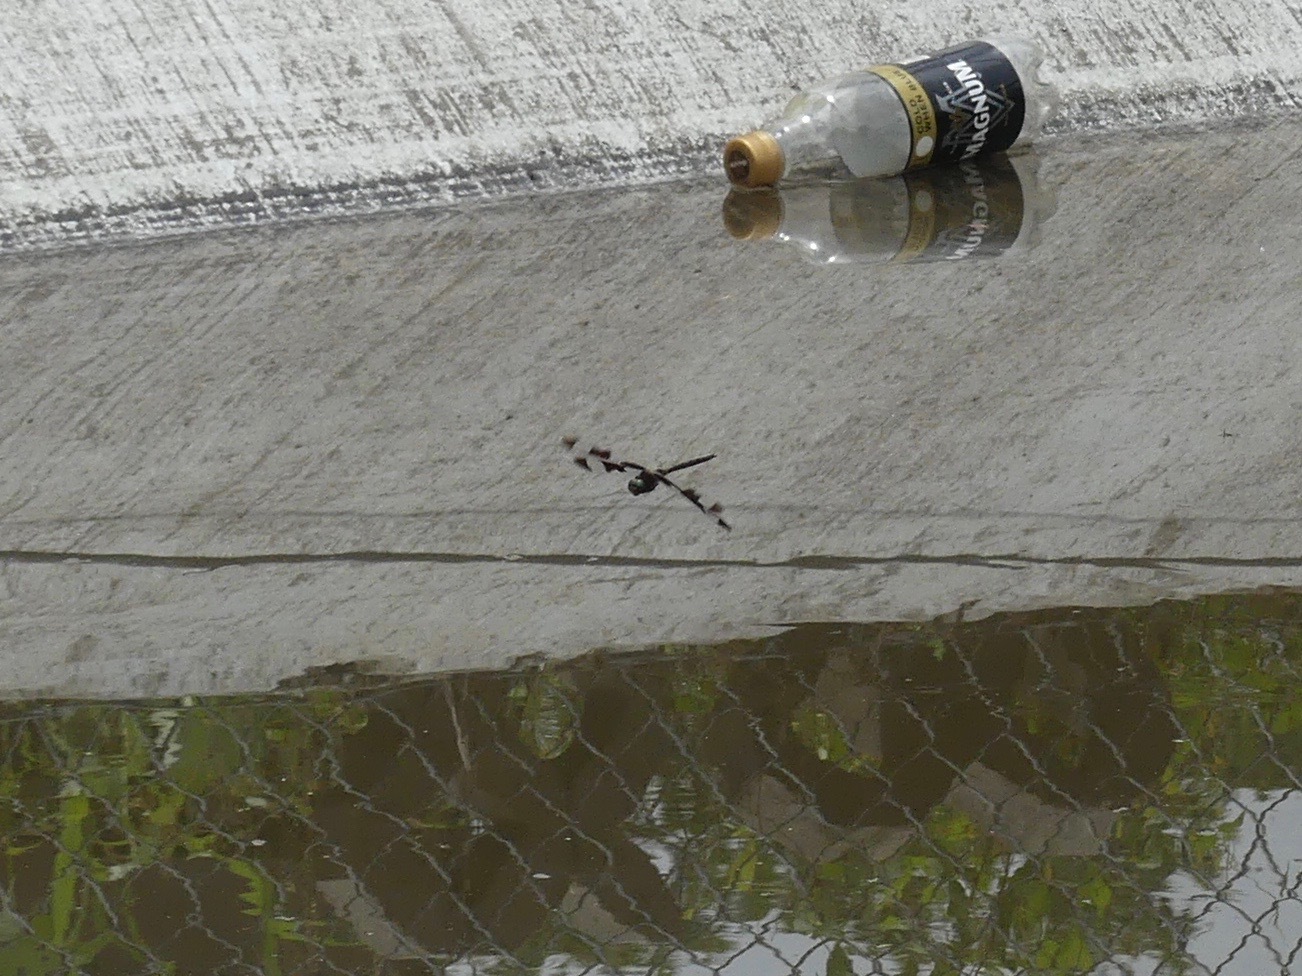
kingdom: Animalia
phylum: Arthropoda
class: Insecta
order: Odonata
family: Corduliidae
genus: Epitheca
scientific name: Epitheca princeps
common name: Prince baskettail
